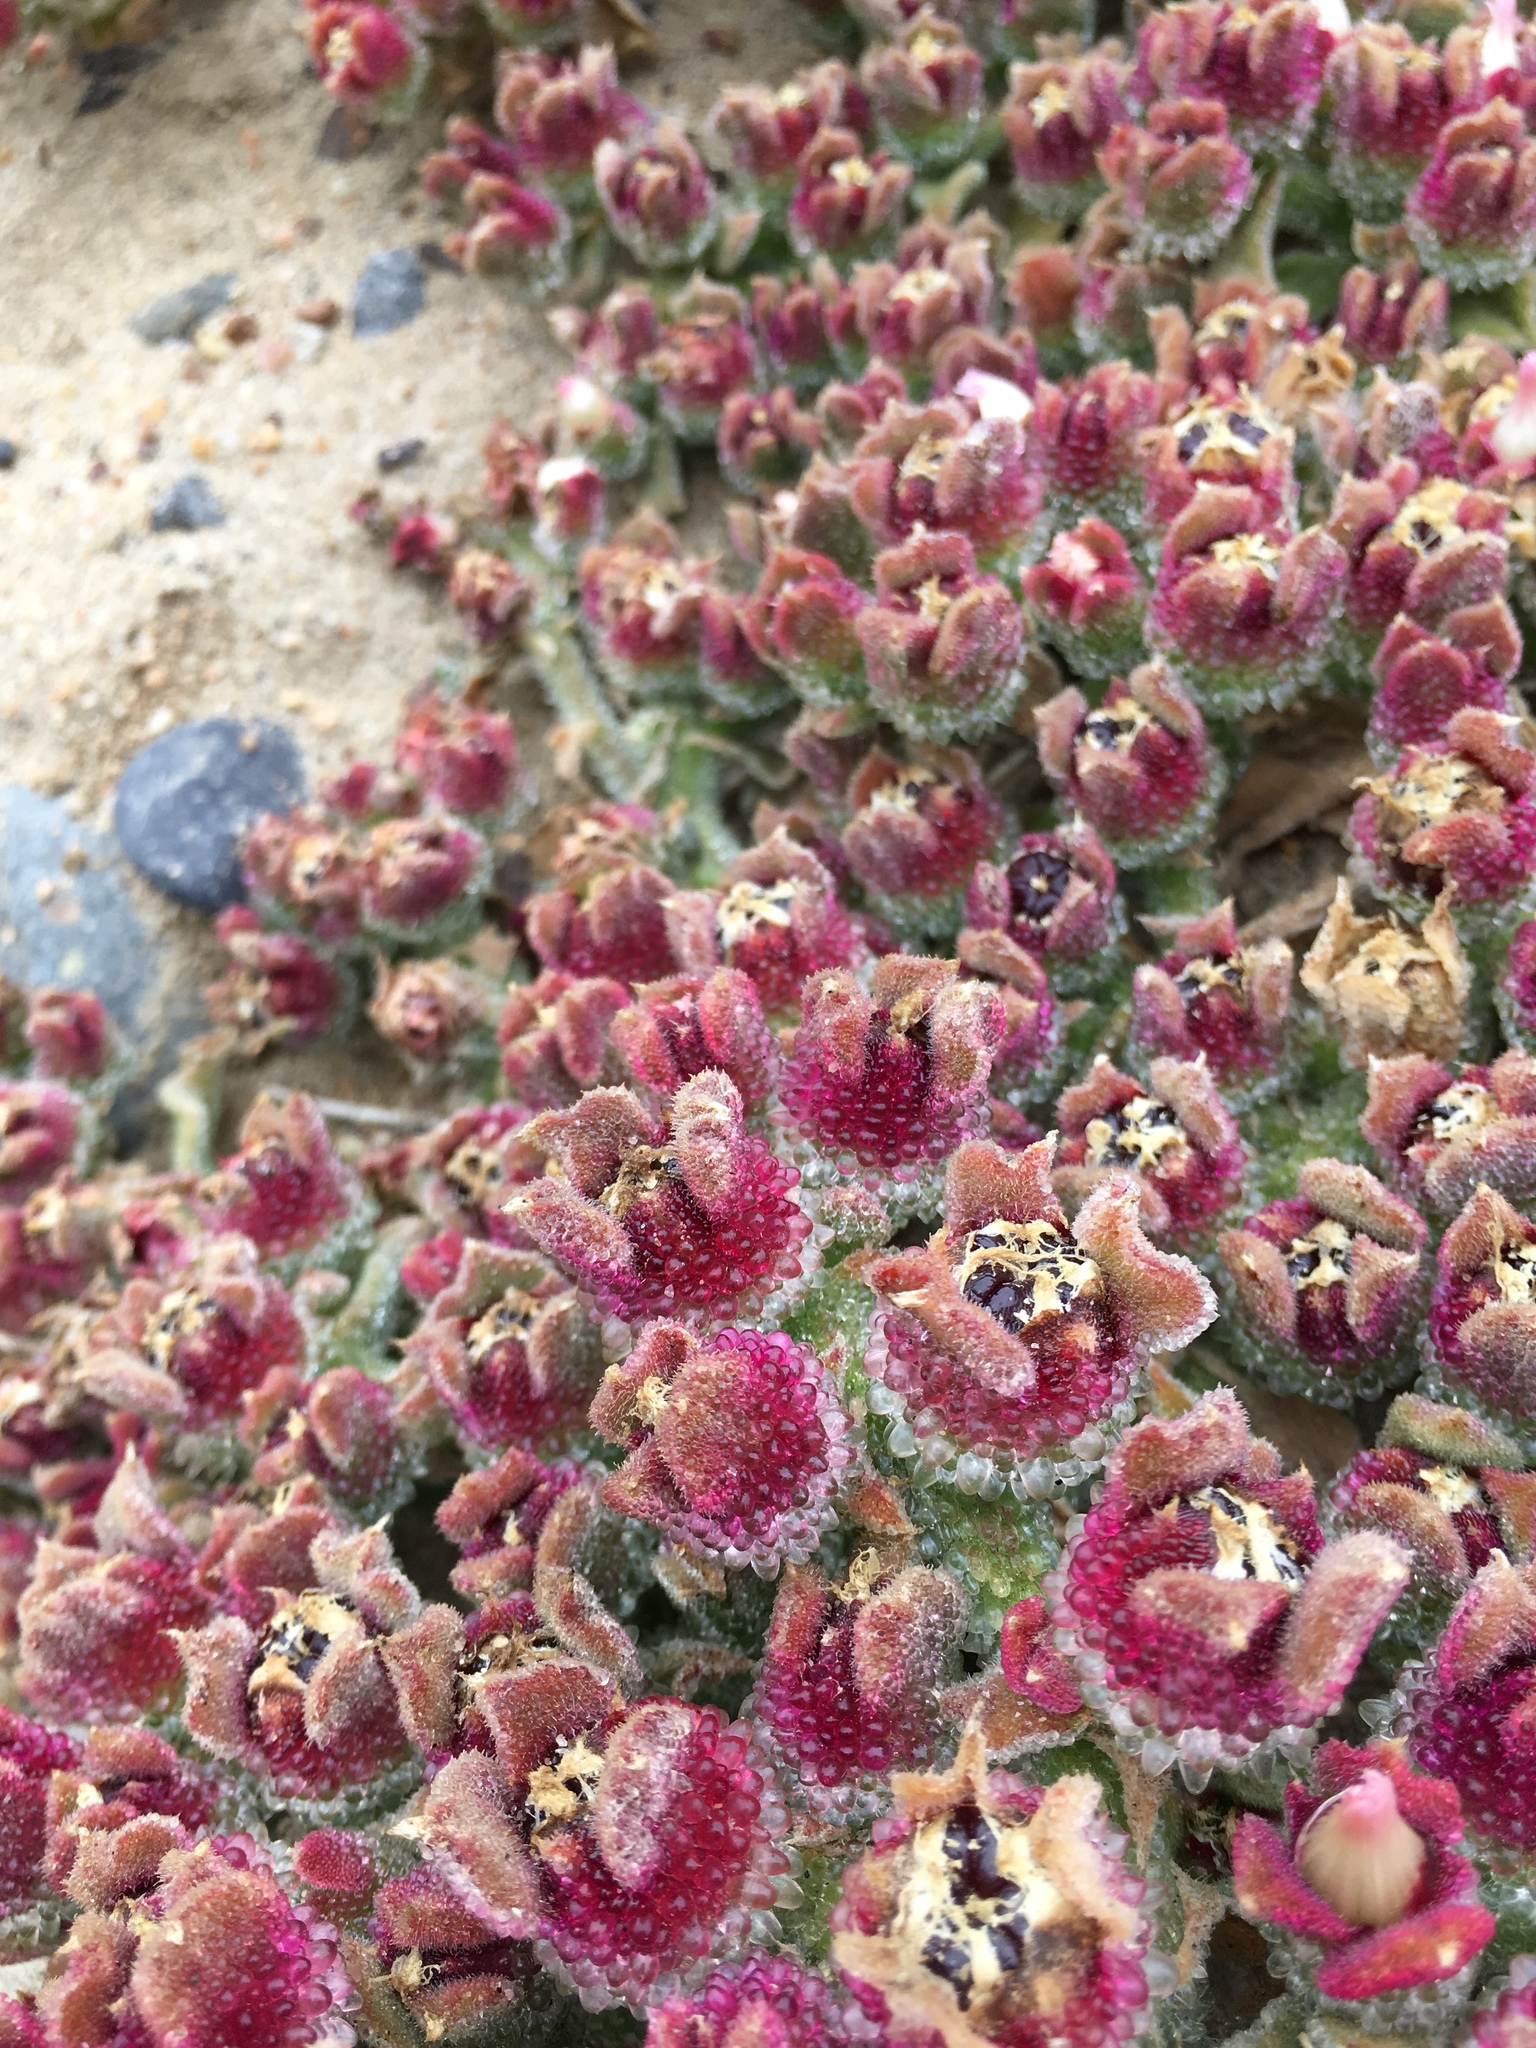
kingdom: Plantae
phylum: Tracheophyta
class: Magnoliopsida
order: Caryophyllales
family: Aizoaceae
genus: Mesembryanthemum
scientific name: Mesembryanthemum crystallinum
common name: Common iceplant
